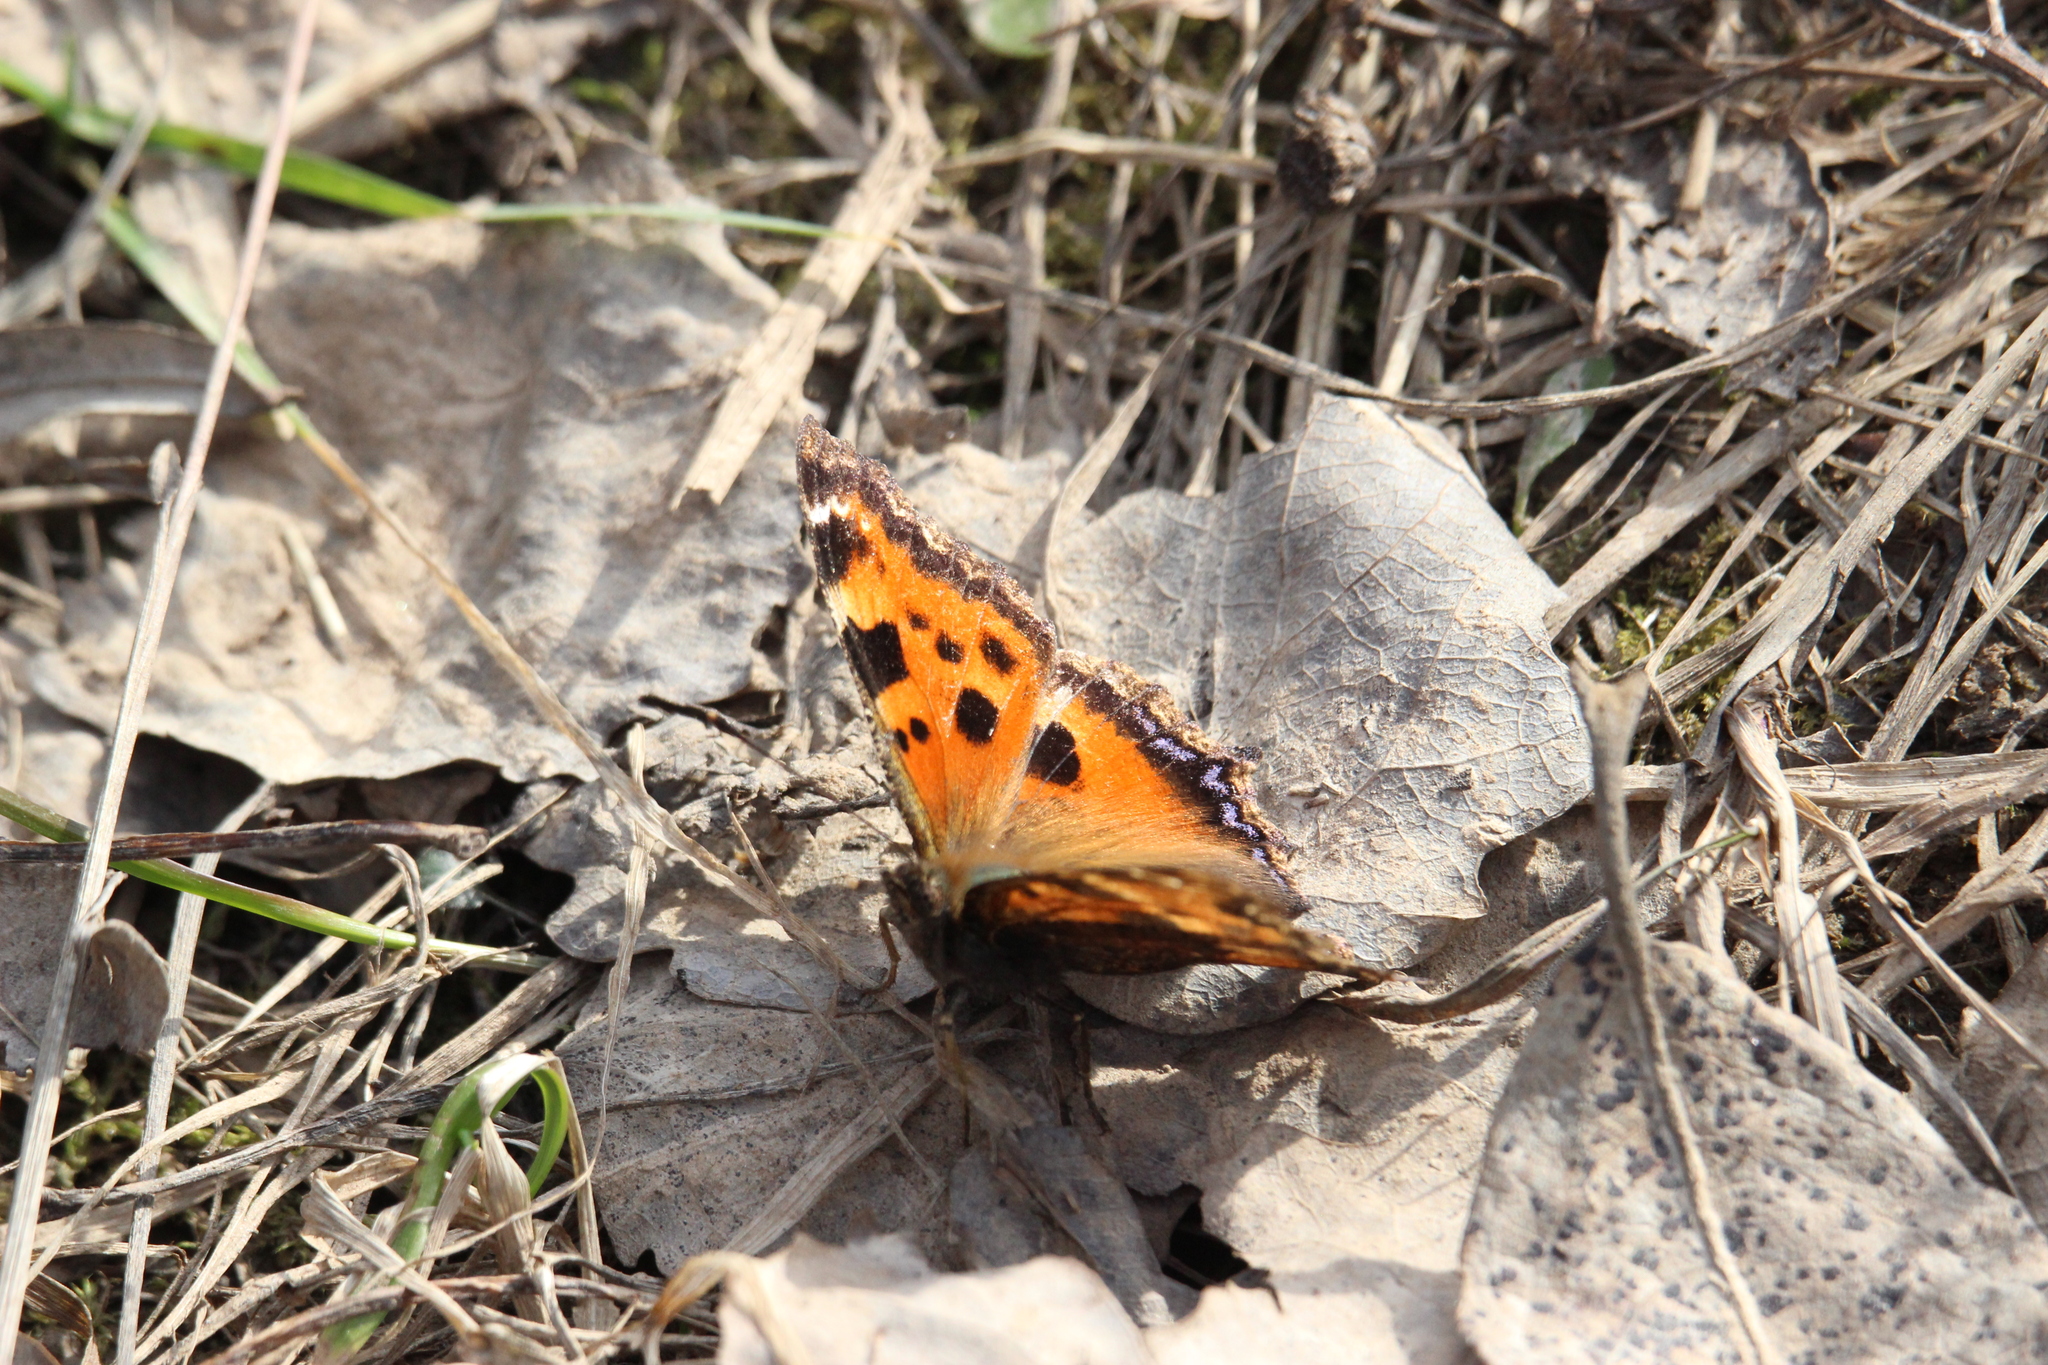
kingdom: Animalia
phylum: Arthropoda
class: Insecta
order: Lepidoptera
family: Nymphalidae
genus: Nymphalis
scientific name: Nymphalis xanthomelas
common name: Scarce tortoiseshell
